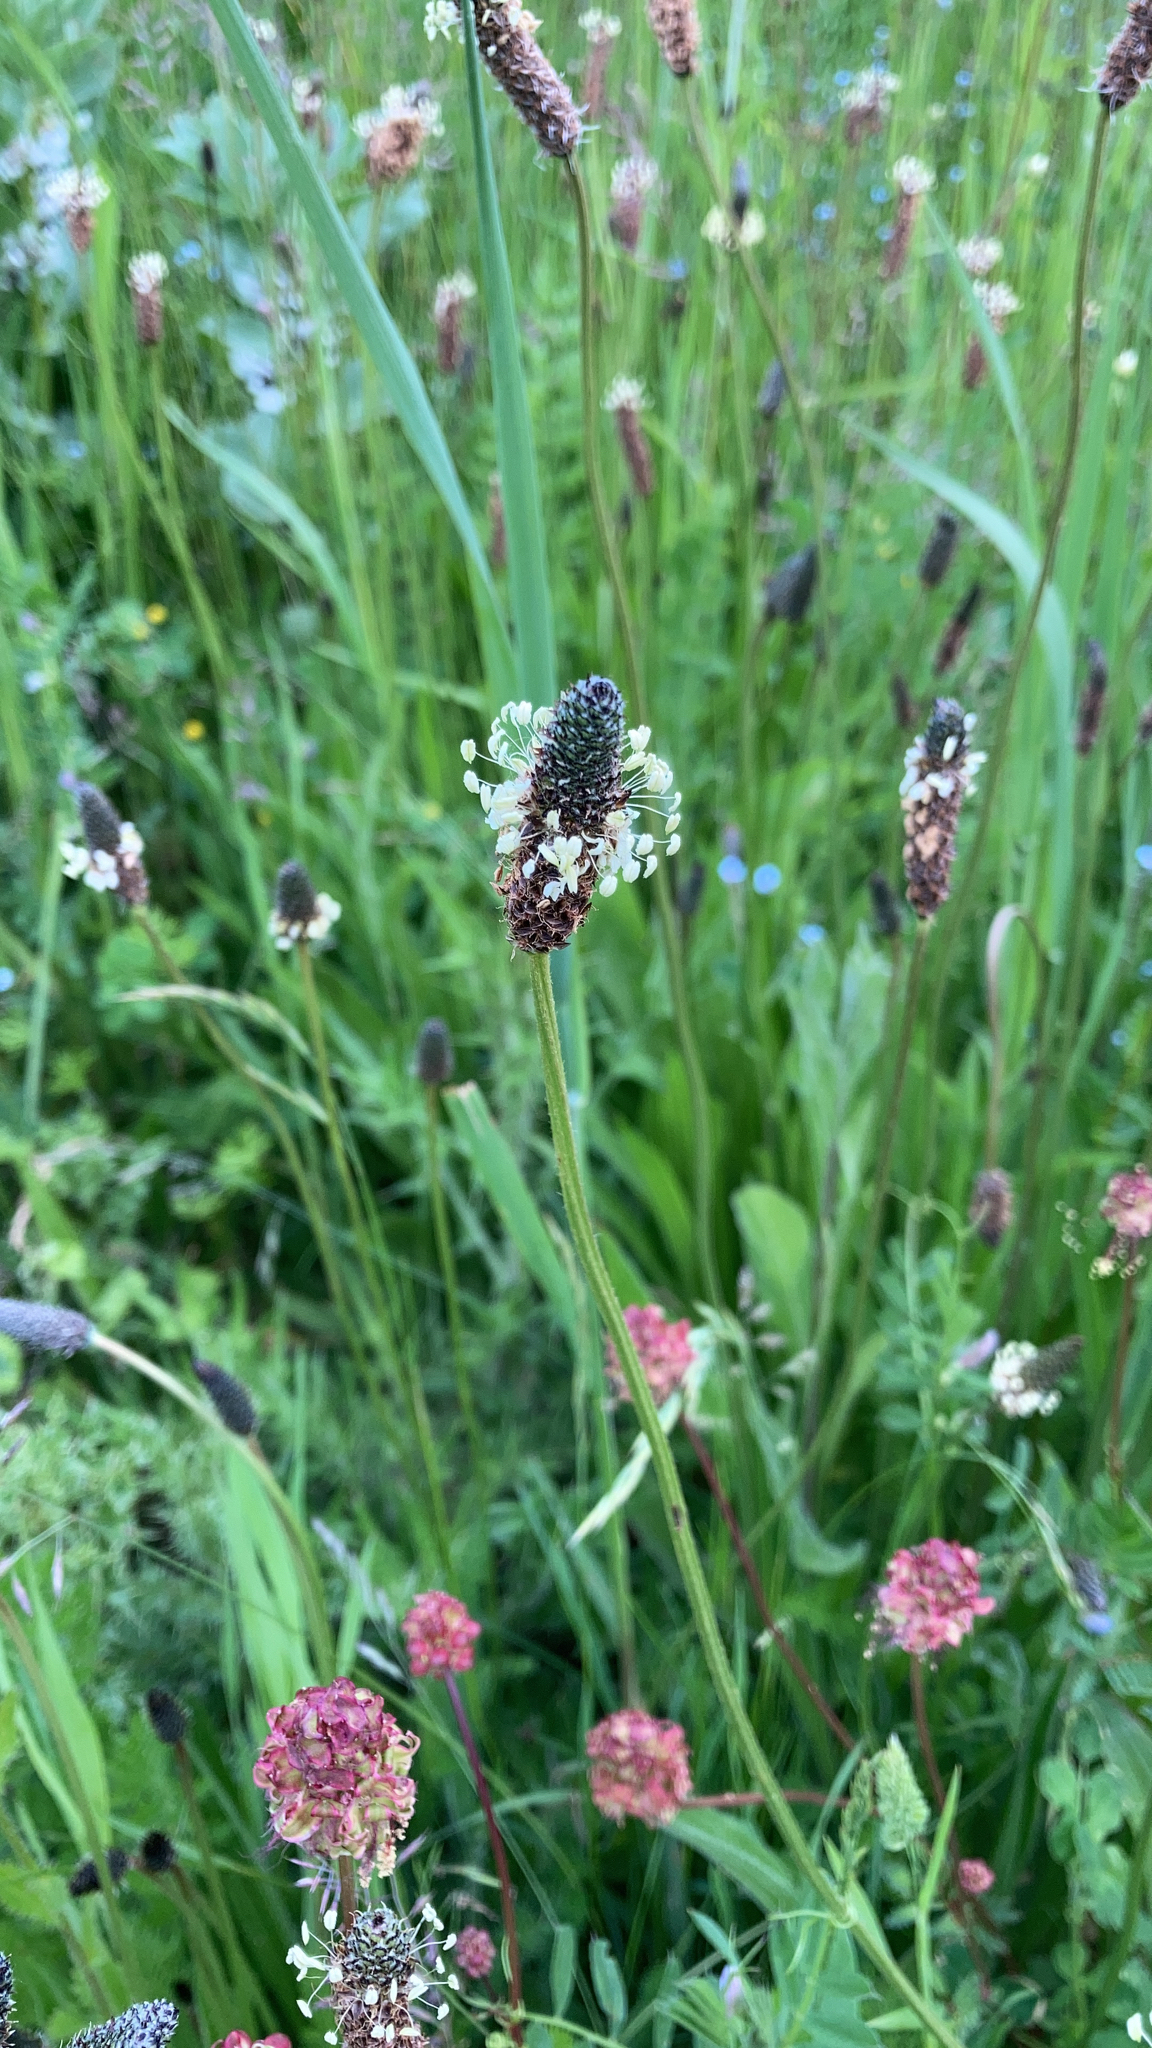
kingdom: Plantae
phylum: Tracheophyta
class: Magnoliopsida
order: Lamiales
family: Plantaginaceae
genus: Plantago
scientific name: Plantago lanceolata
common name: Ribwort plantain
